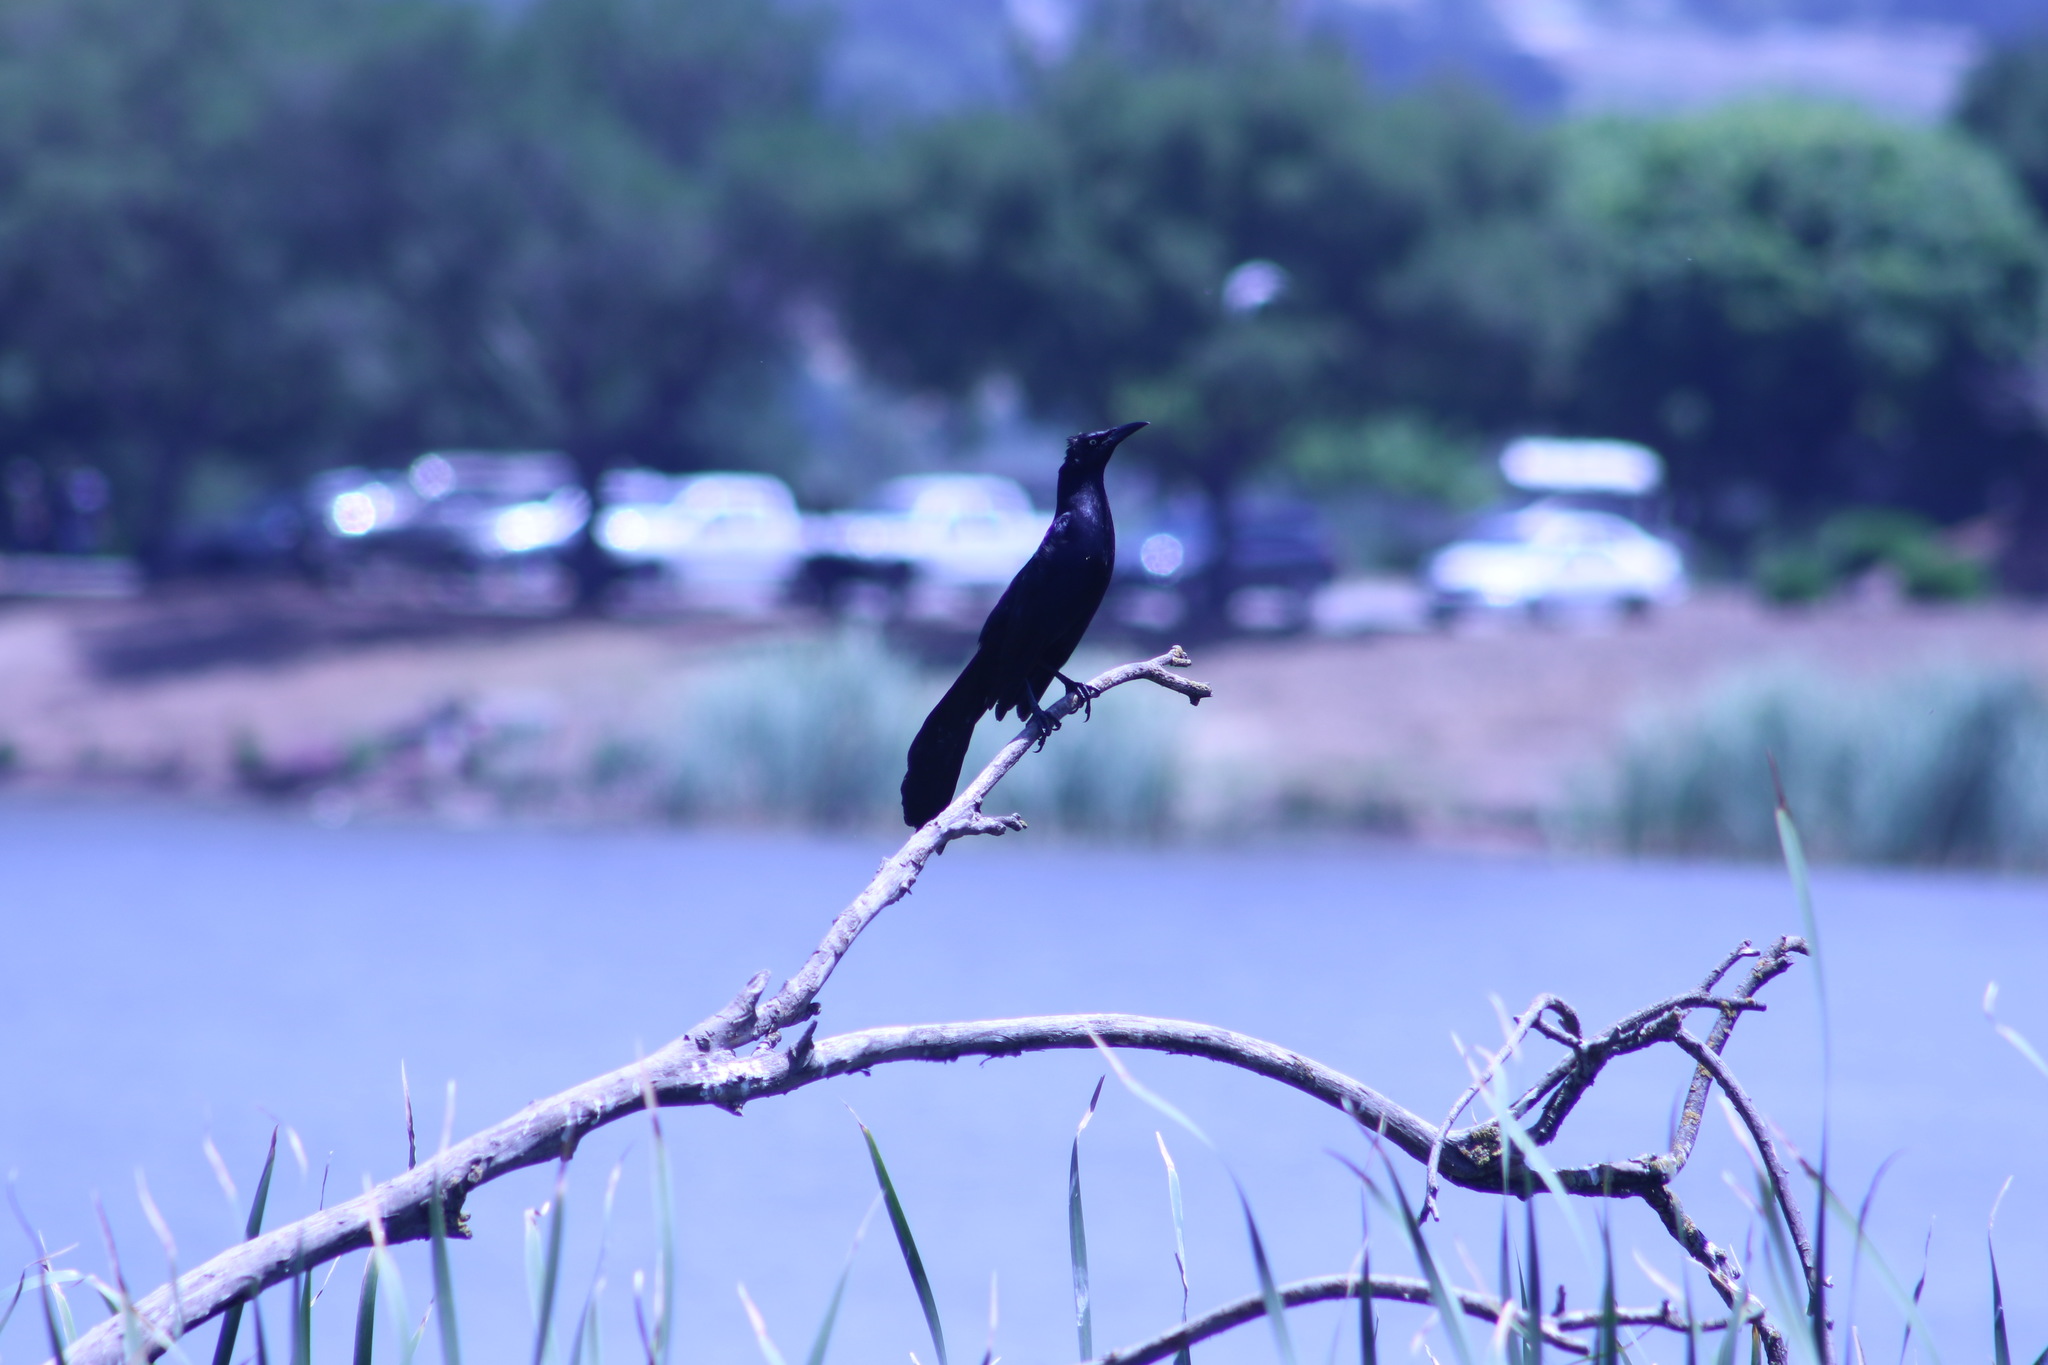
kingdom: Animalia
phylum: Chordata
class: Aves
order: Passeriformes
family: Icteridae
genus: Quiscalus
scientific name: Quiscalus mexicanus
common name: Great-tailed grackle
